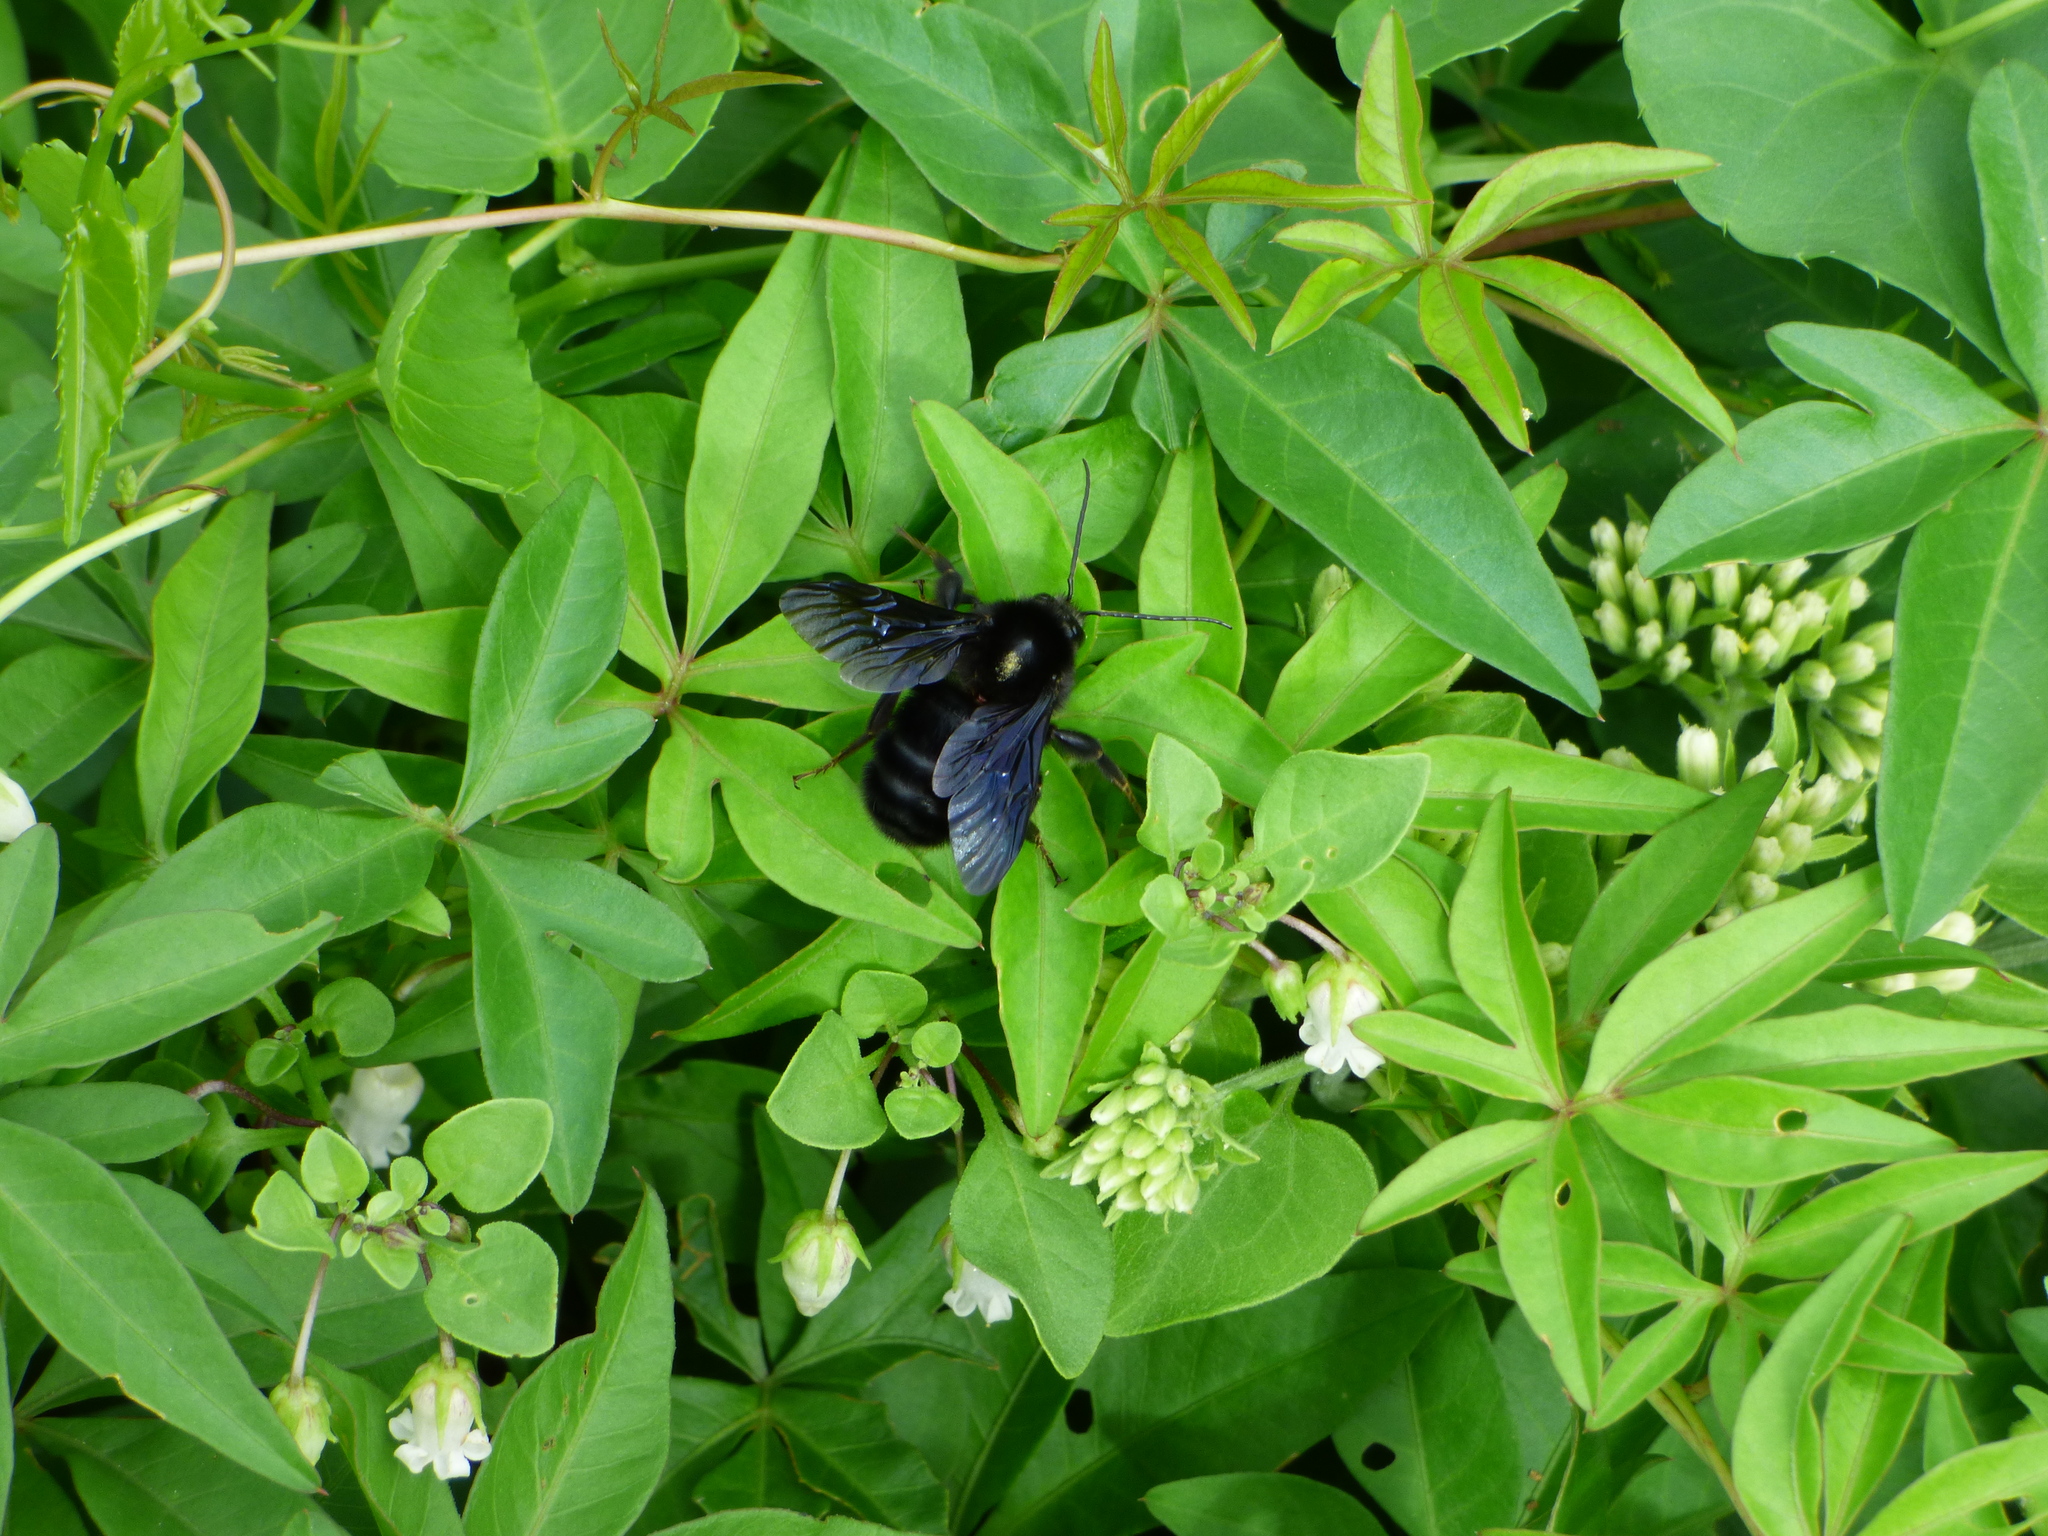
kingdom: Animalia
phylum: Arthropoda
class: Insecta
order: Hymenoptera
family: Apidae
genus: Bombus
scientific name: Bombus pauloensis
